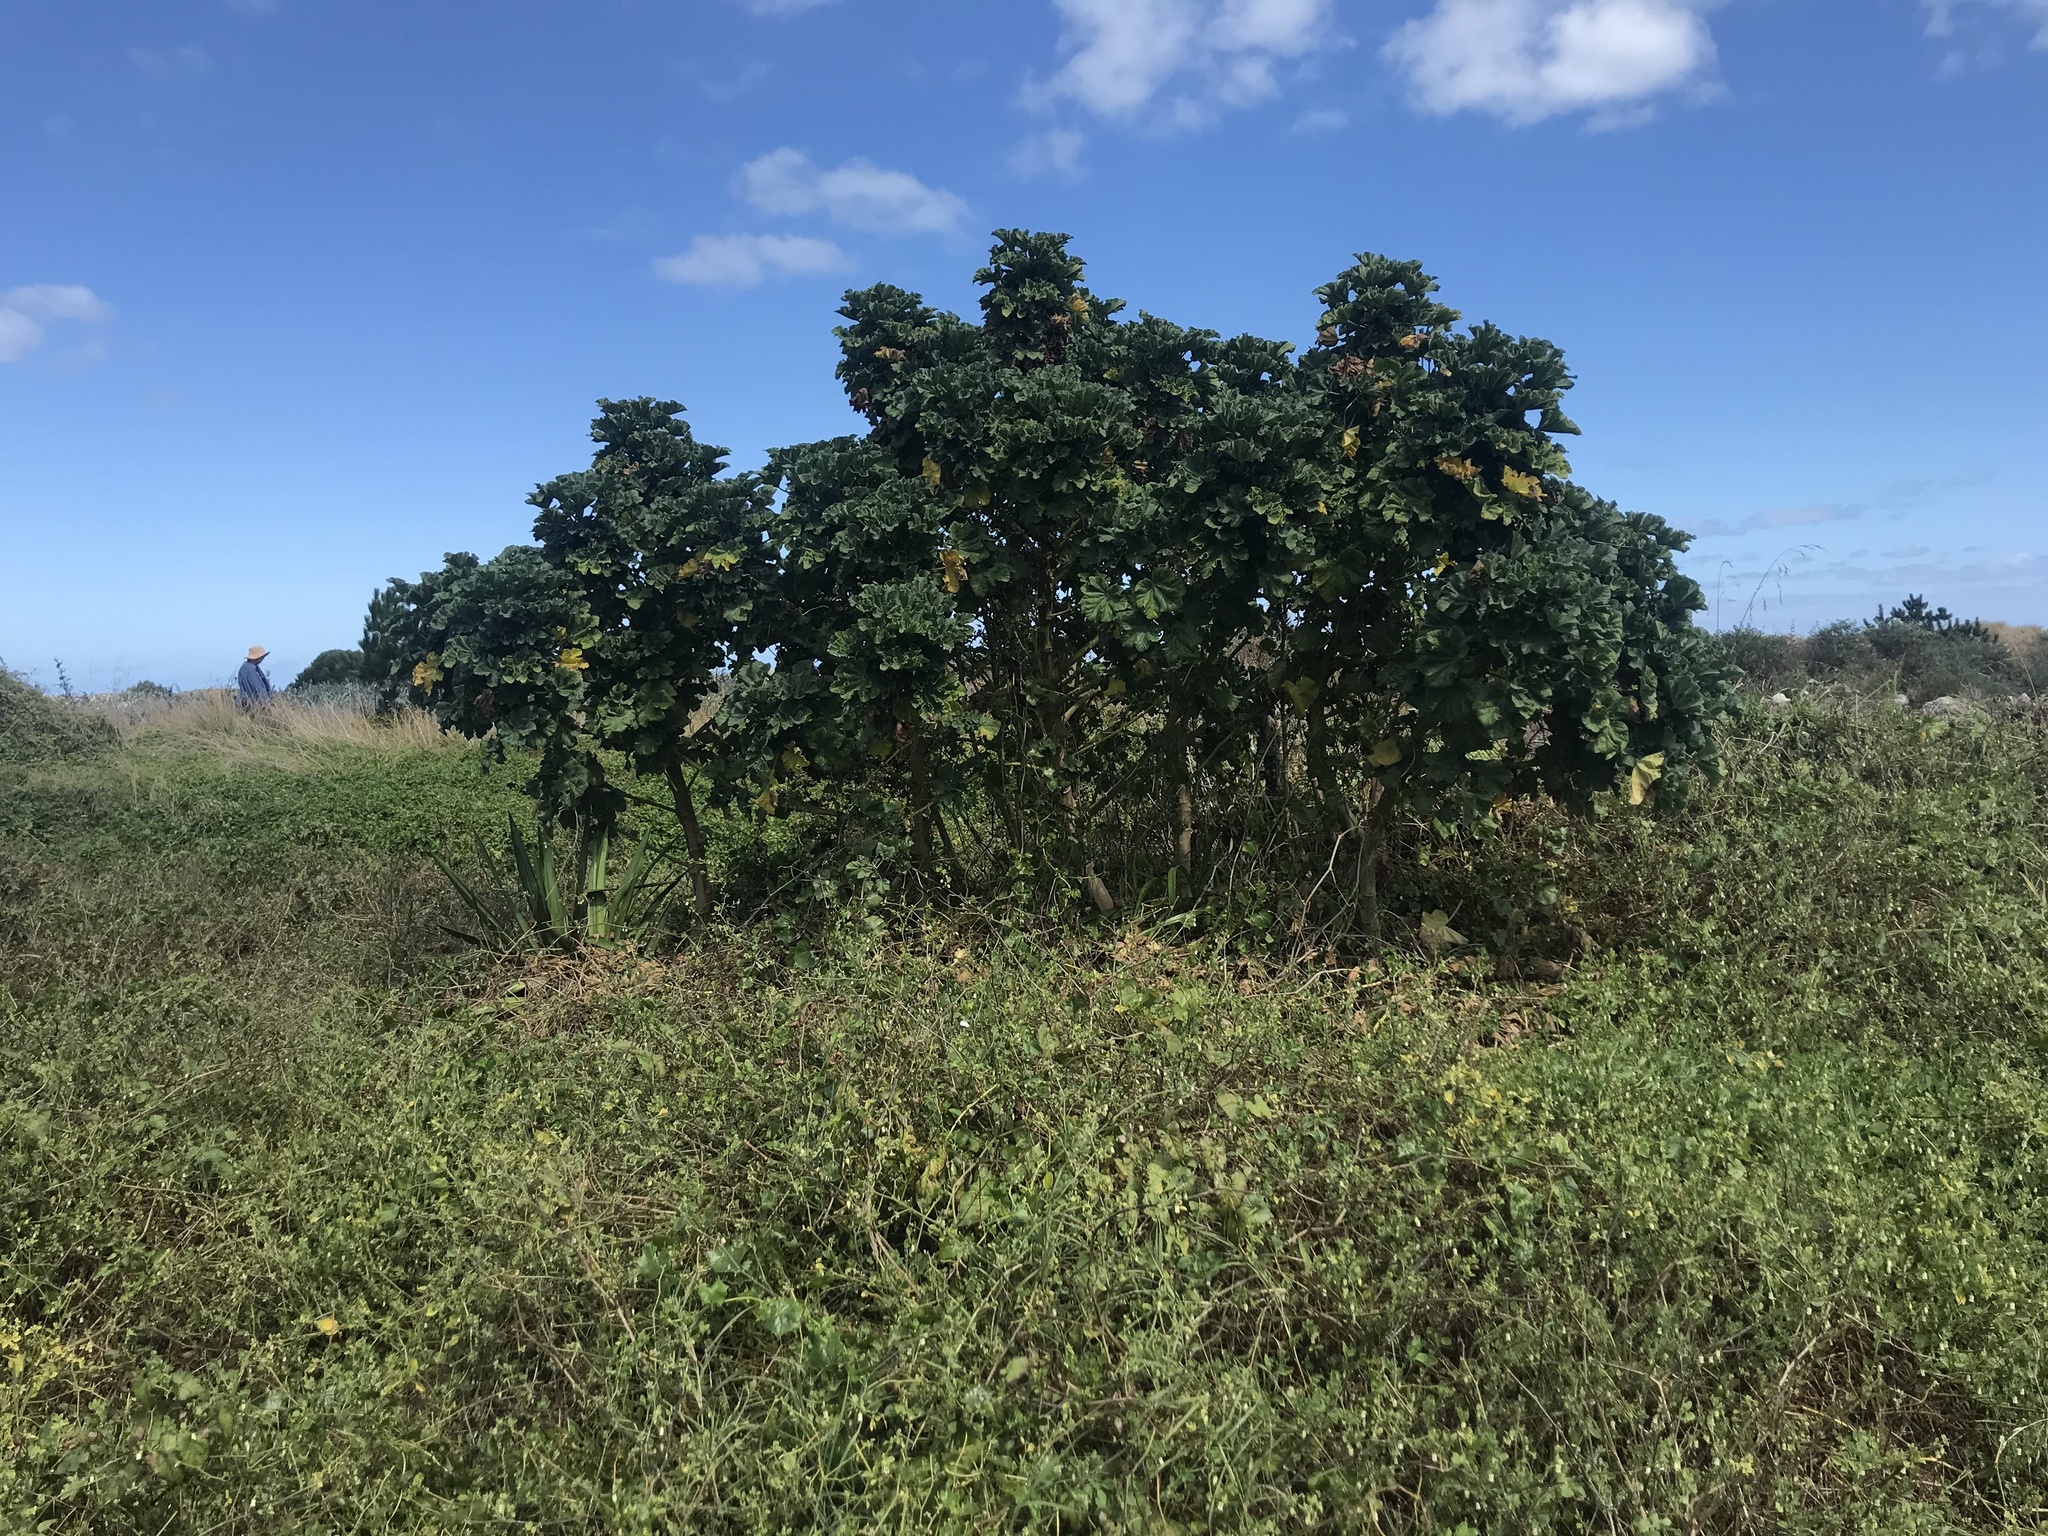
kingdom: Plantae
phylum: Tracheophyta
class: Magnoliopsida
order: Malvales
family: Malvaceae
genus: Malva
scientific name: Malva arborea
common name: Tree mallow
